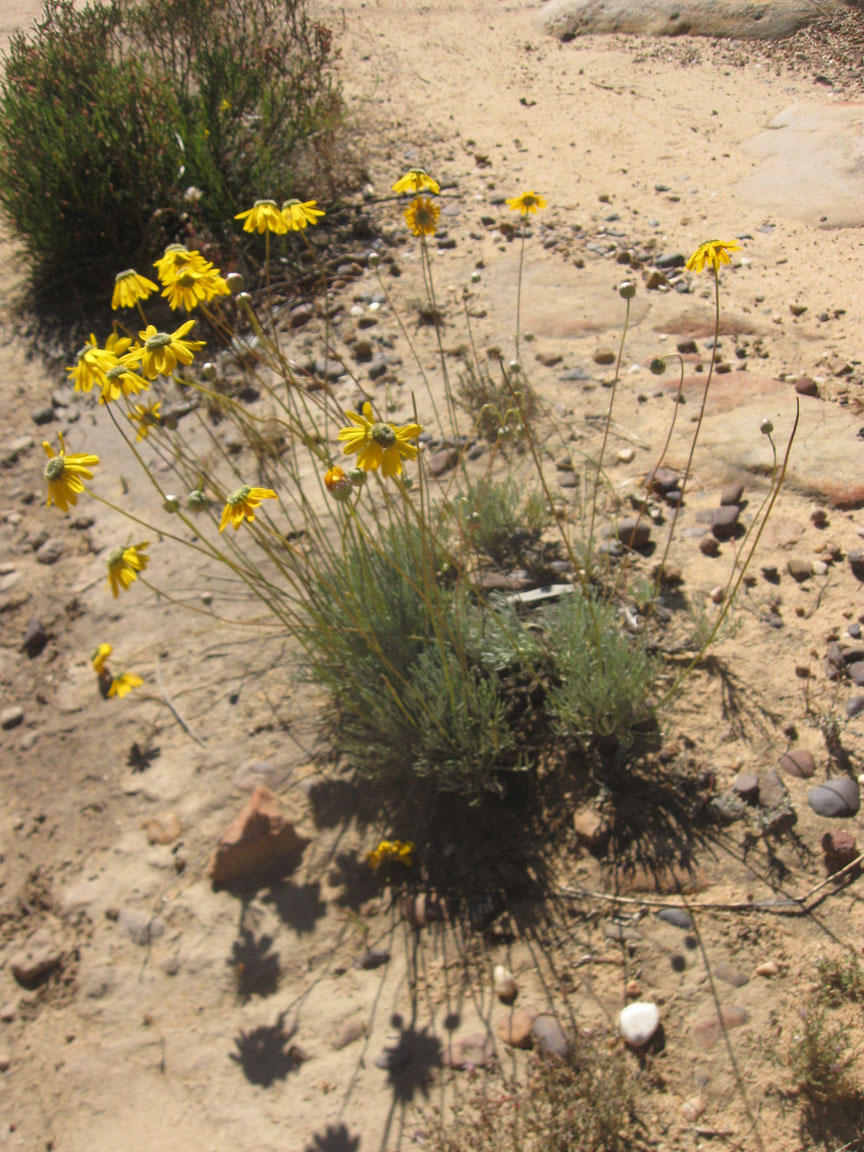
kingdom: Plantae
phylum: Tracheophyta
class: Magnoliopsida
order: Asterales
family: Asteraceae
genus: Ursinia
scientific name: Ursinia sericea
